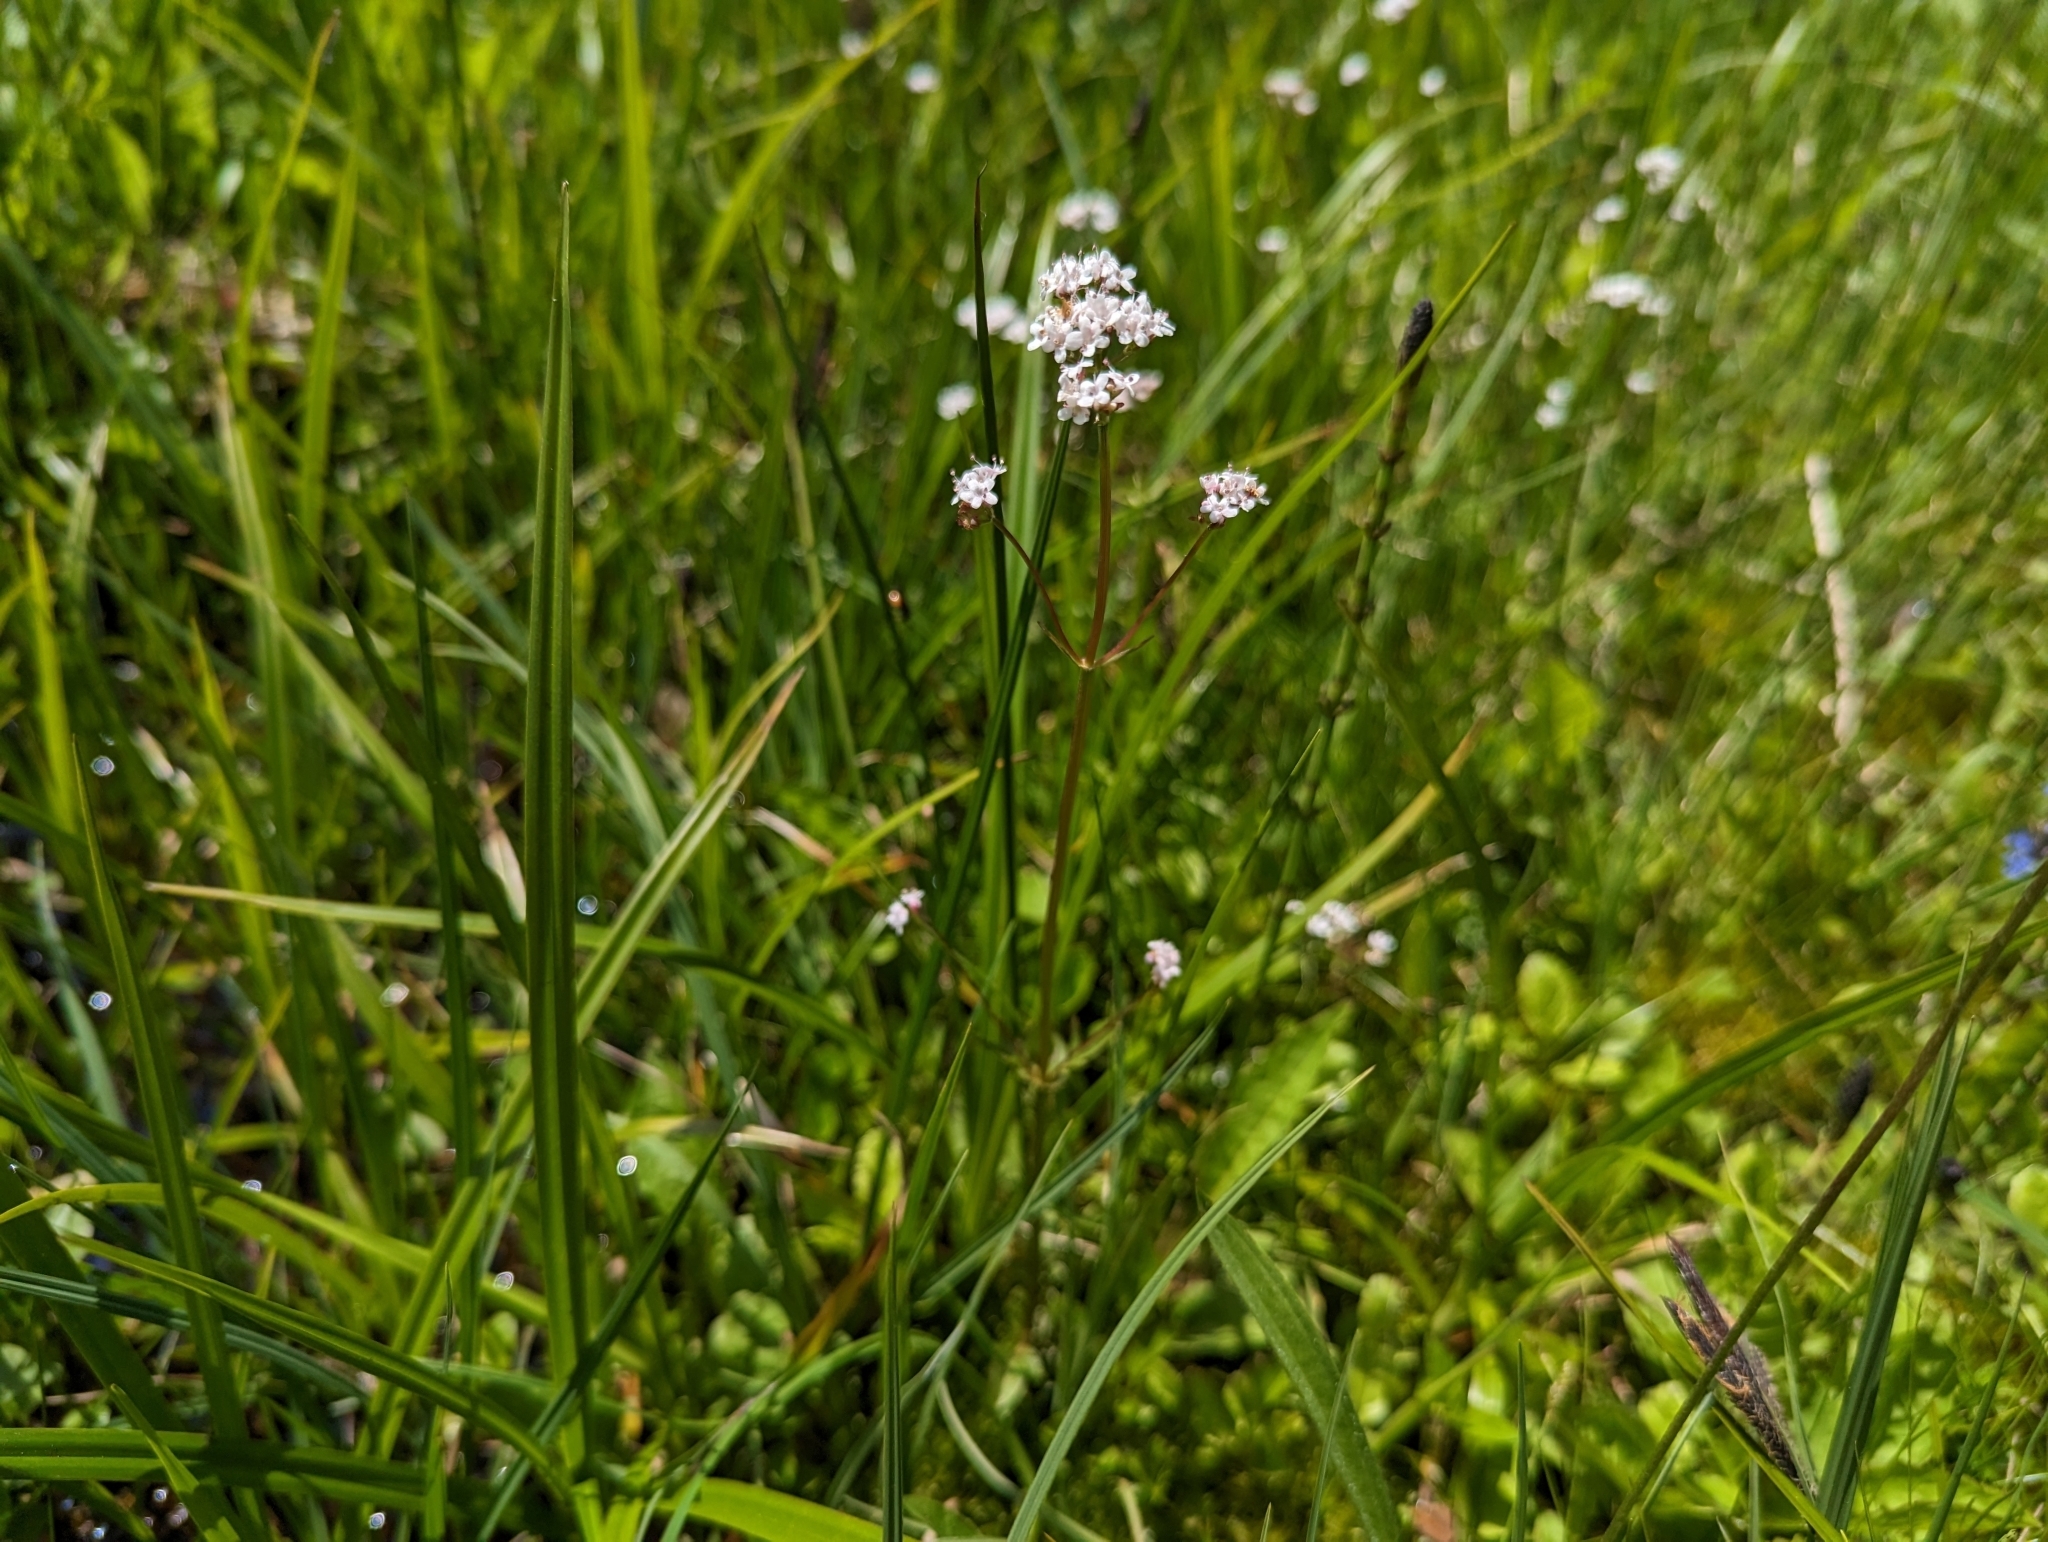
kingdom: Plantae
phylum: Tracheophyta
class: Magnoliopsida
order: Dipsacales
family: Caprifoliaceae
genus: Valeriana
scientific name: Valeriana dioica
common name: Marsh valerian
